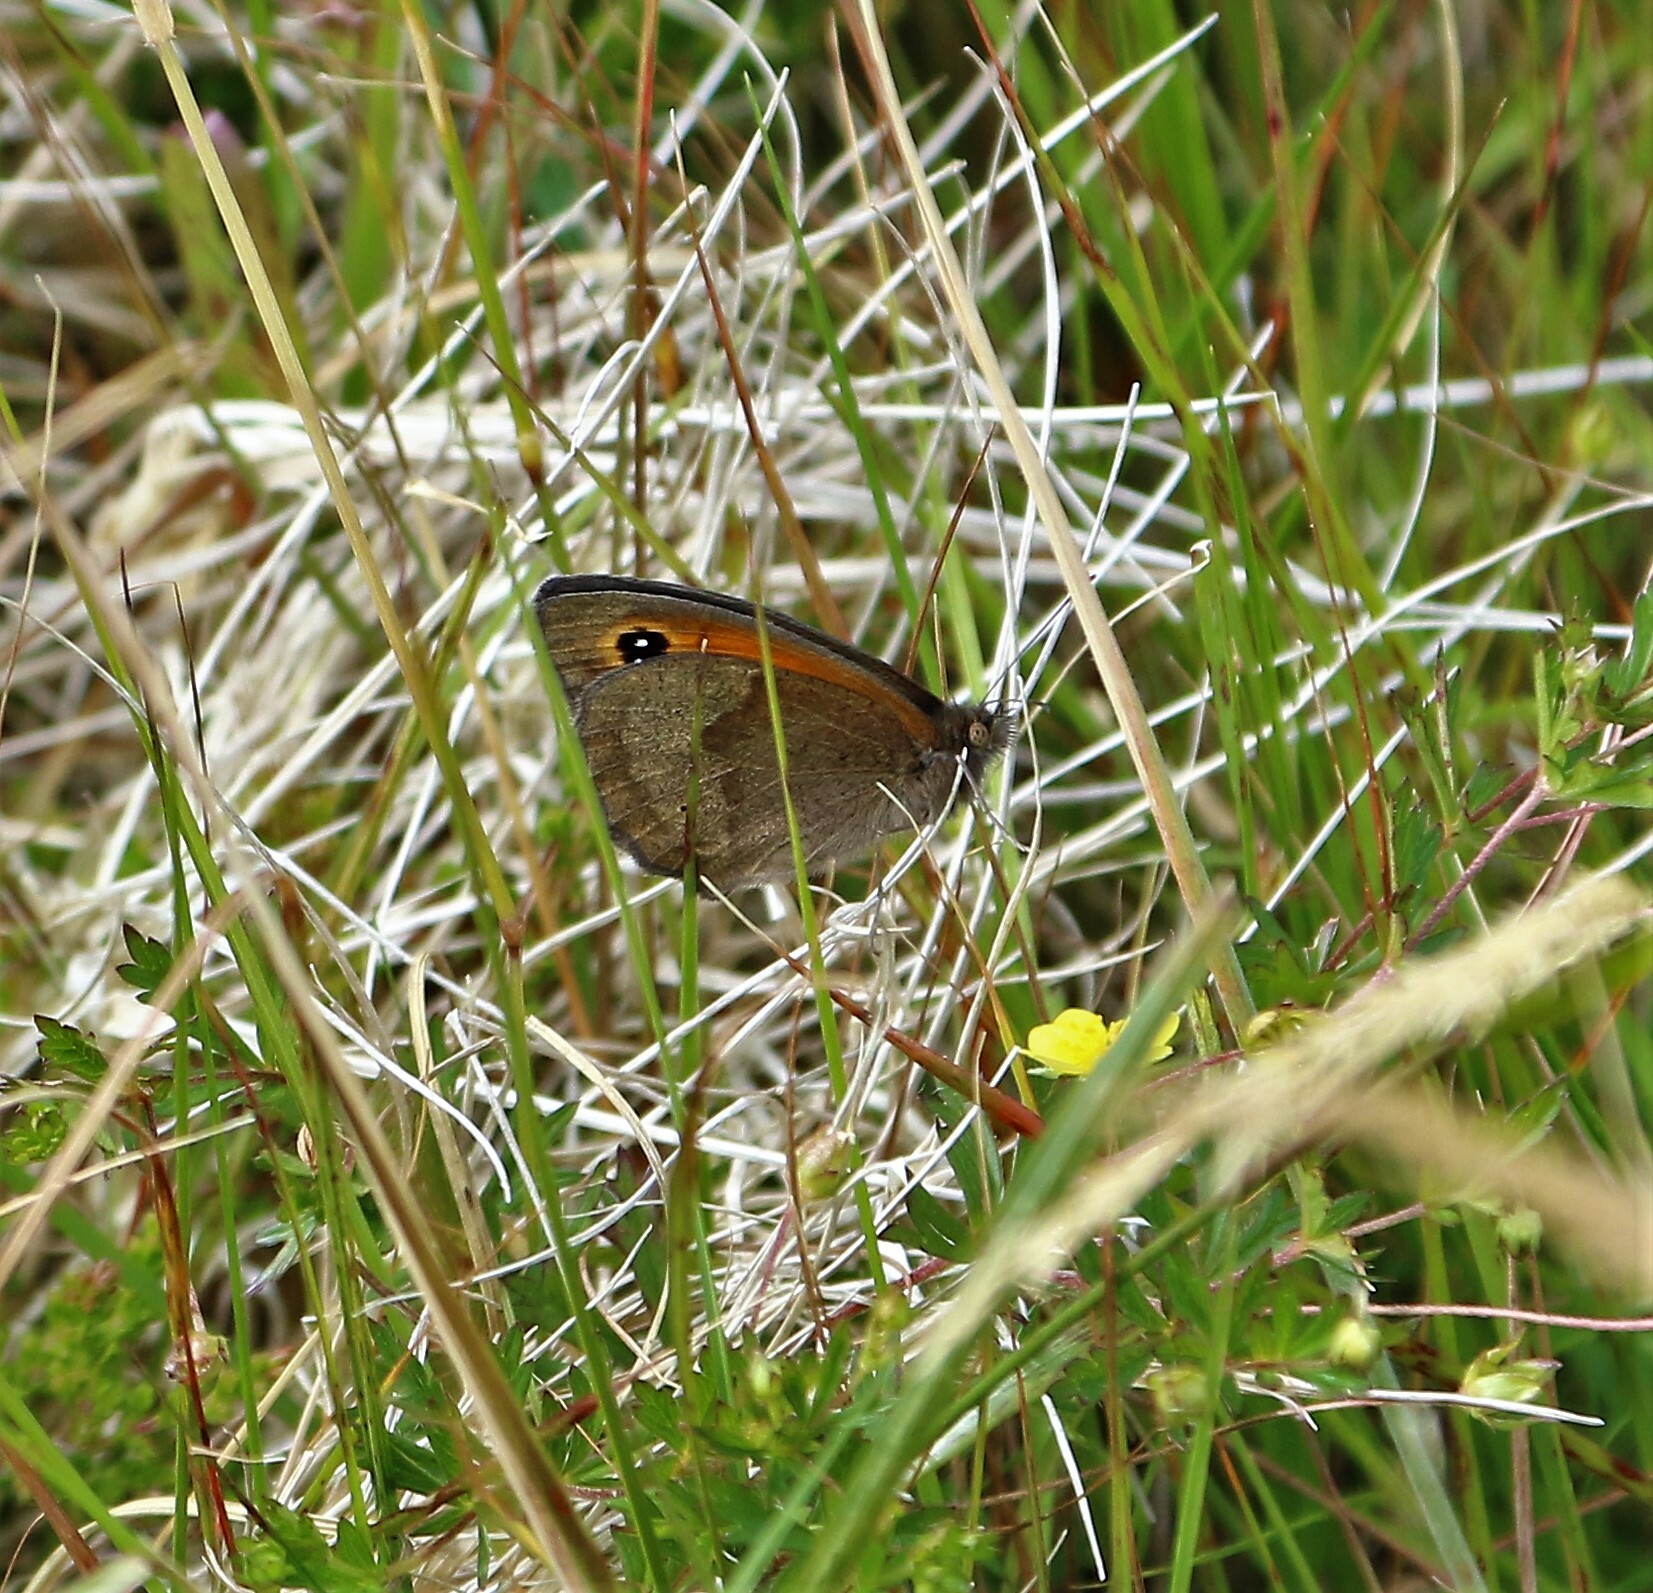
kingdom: Animalia
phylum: Arthropoda
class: Insecta
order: Lepidoptera
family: Nymphalidae
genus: Maniola
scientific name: Maniola jurtina
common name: Meadow brown
